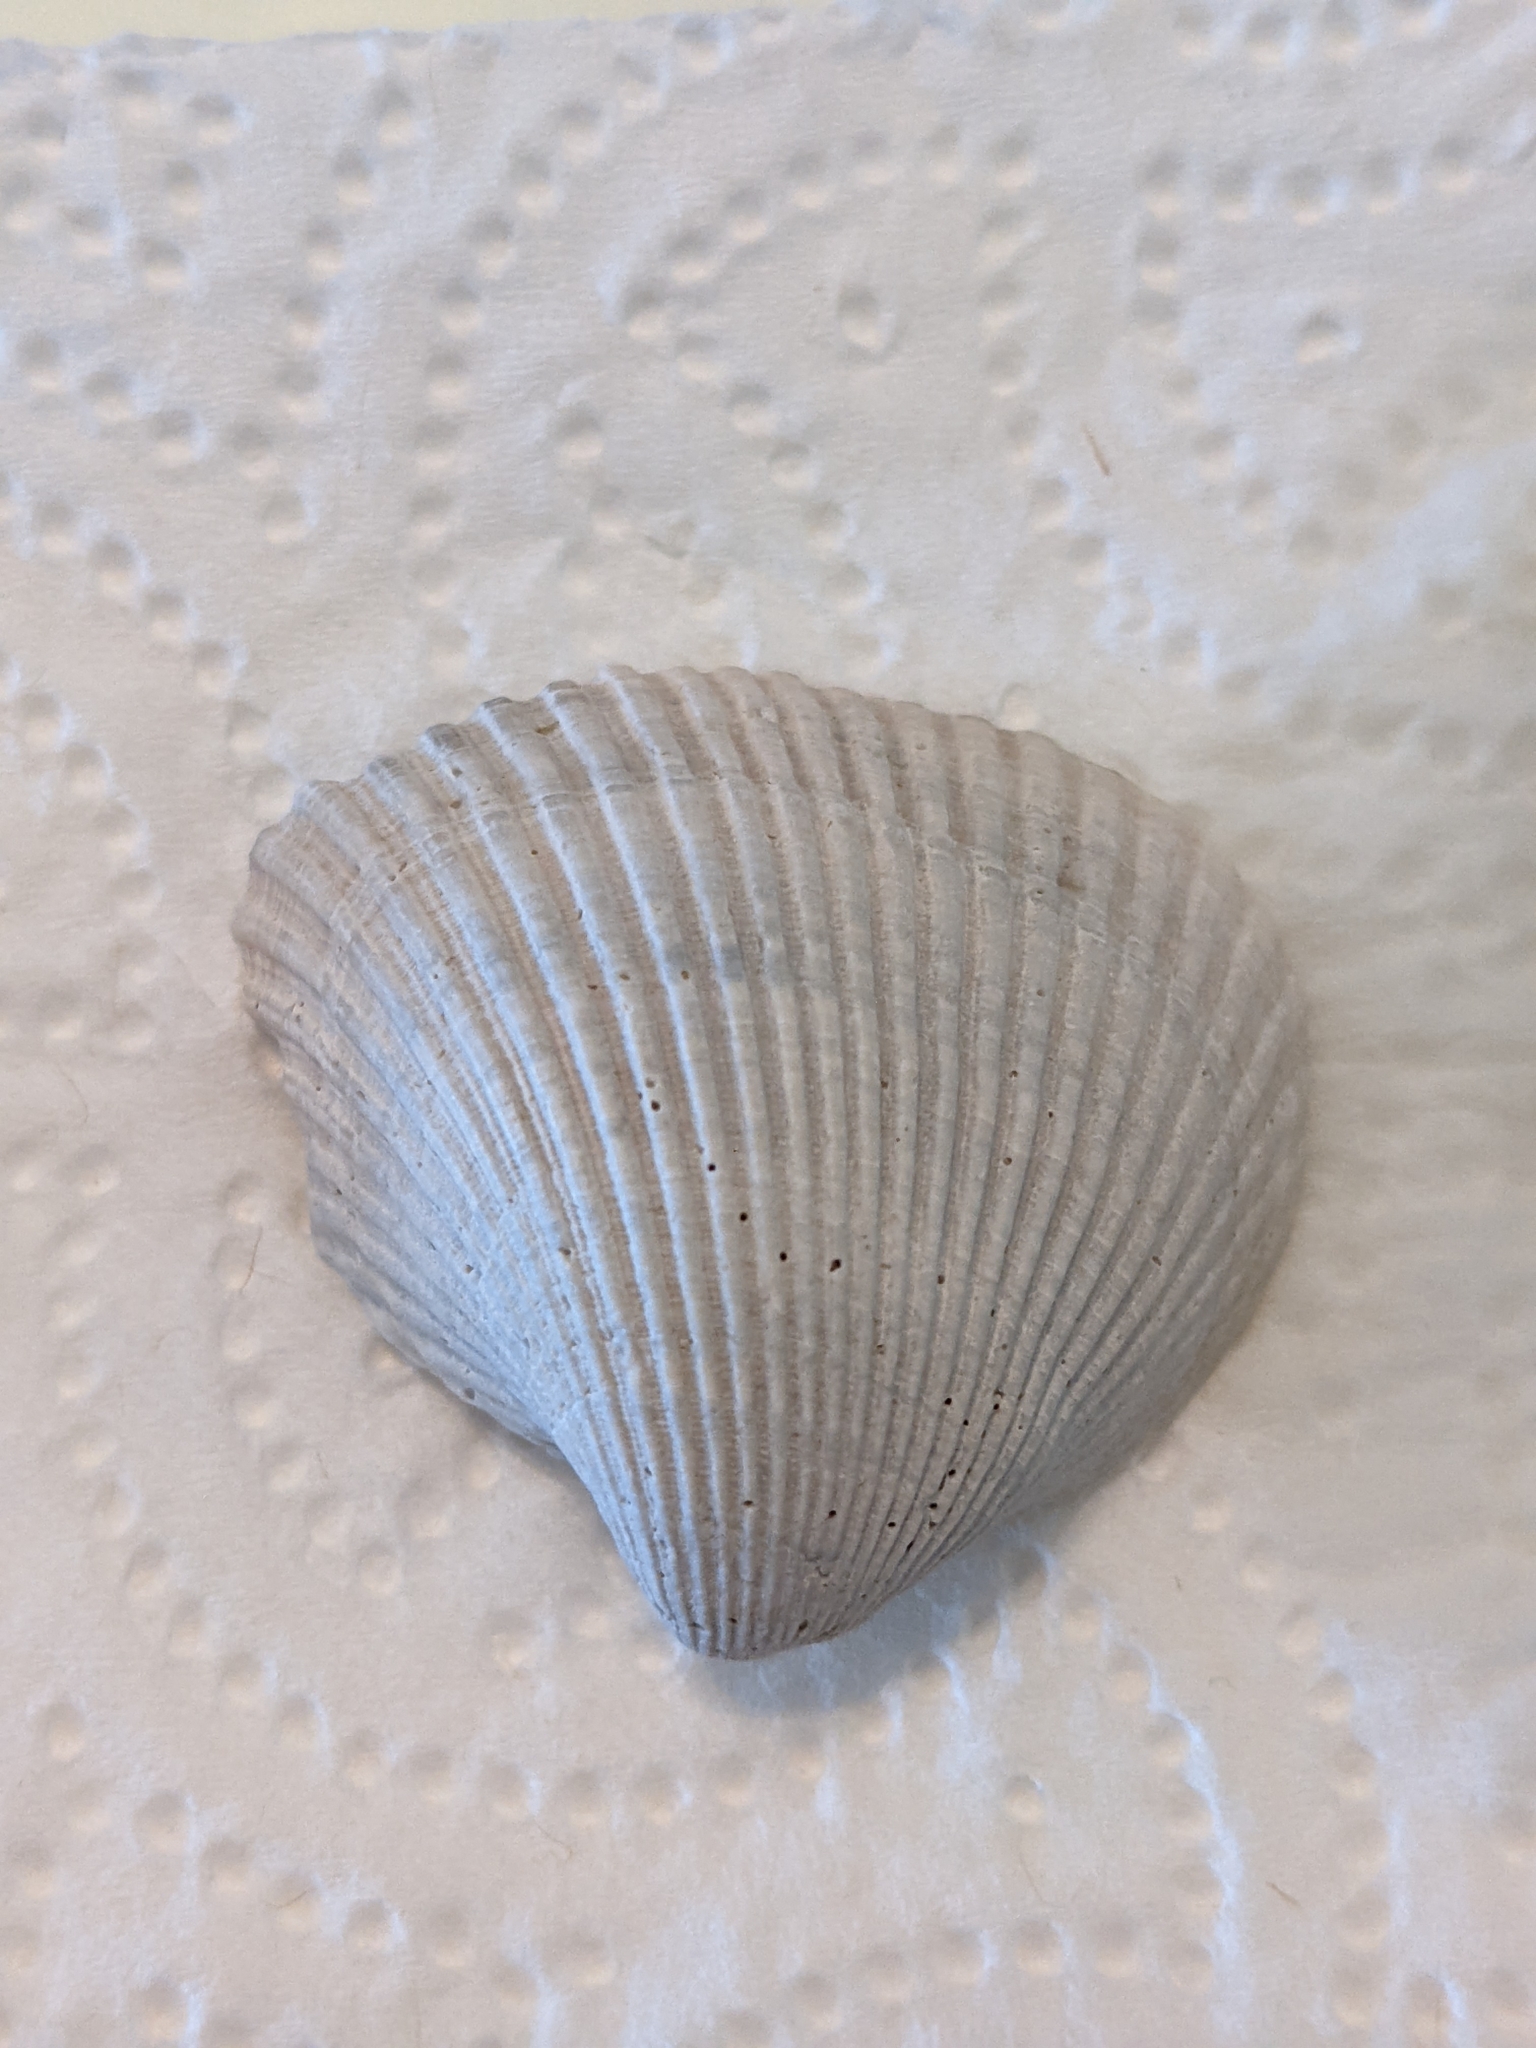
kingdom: Animalia
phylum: Mollusca
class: Bivalvia
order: Arcida
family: Noetiidae
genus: Noetia
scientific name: Noetia ponderosa
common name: Ponderous ark
